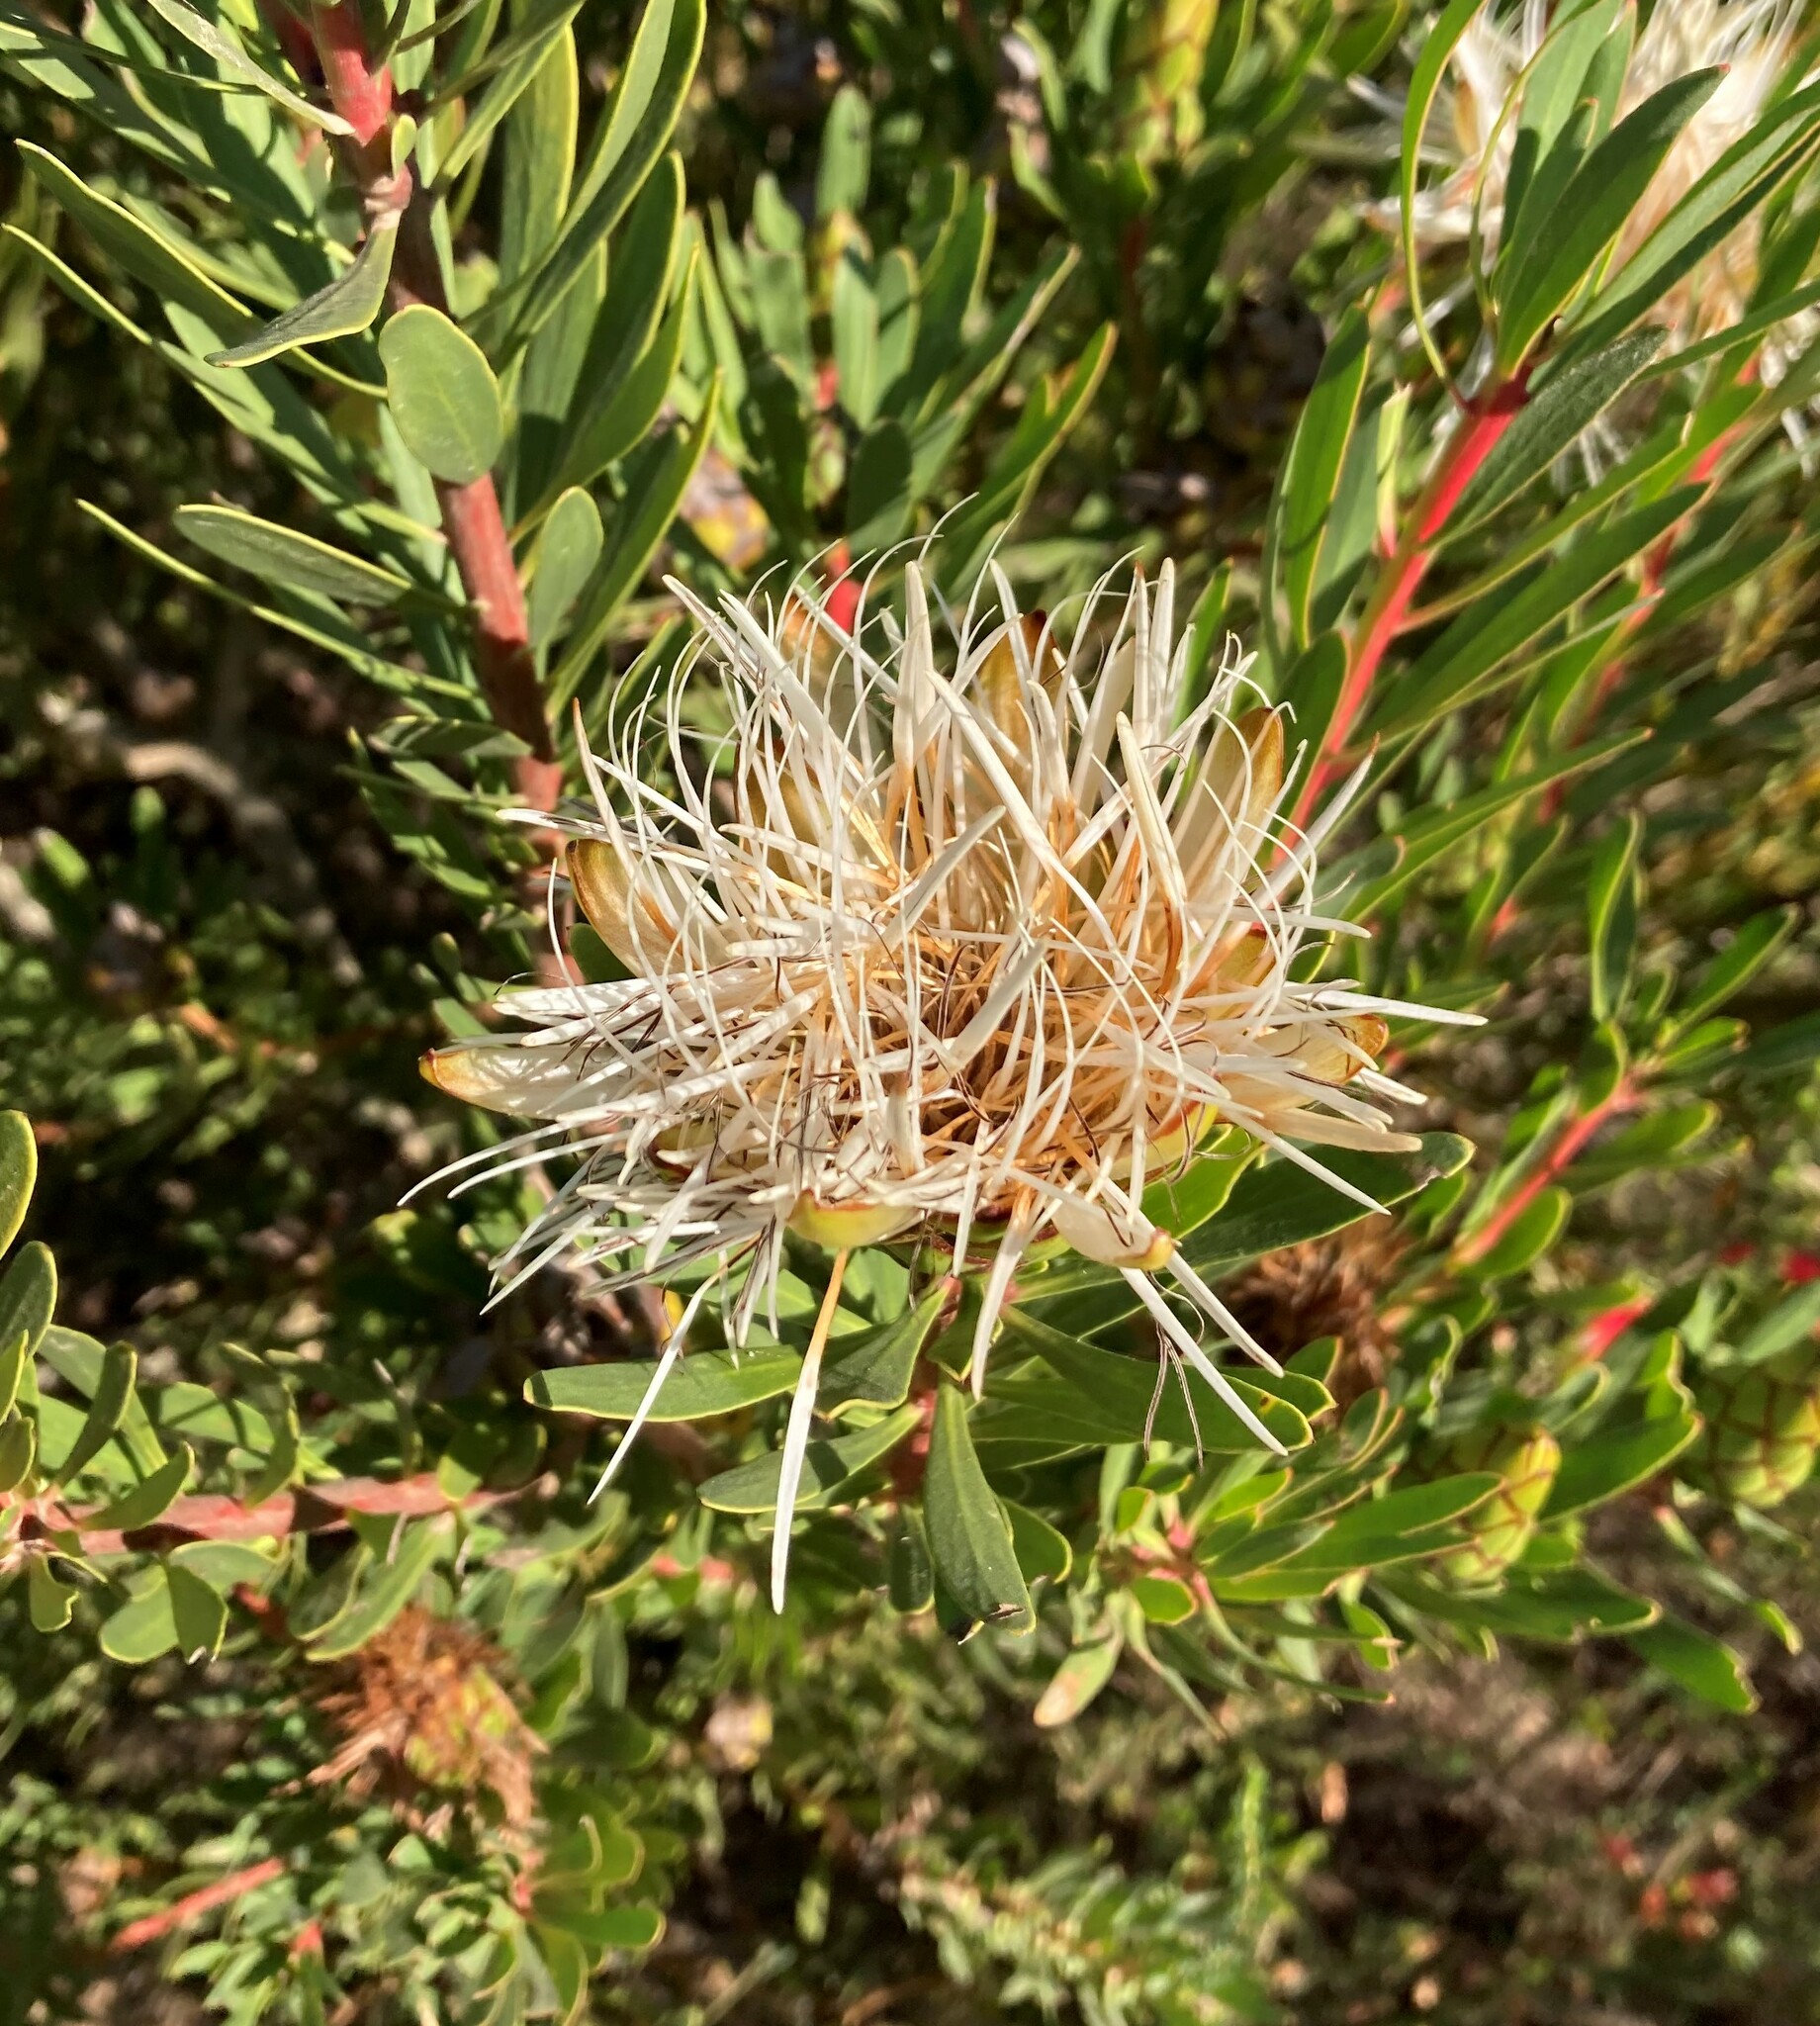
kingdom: Plantae
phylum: Tracheophyta
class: Magnoliopsida
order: Proteales
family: Proteaceae
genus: Protea
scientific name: Protea lanceolata
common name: Lance-leaved protea
